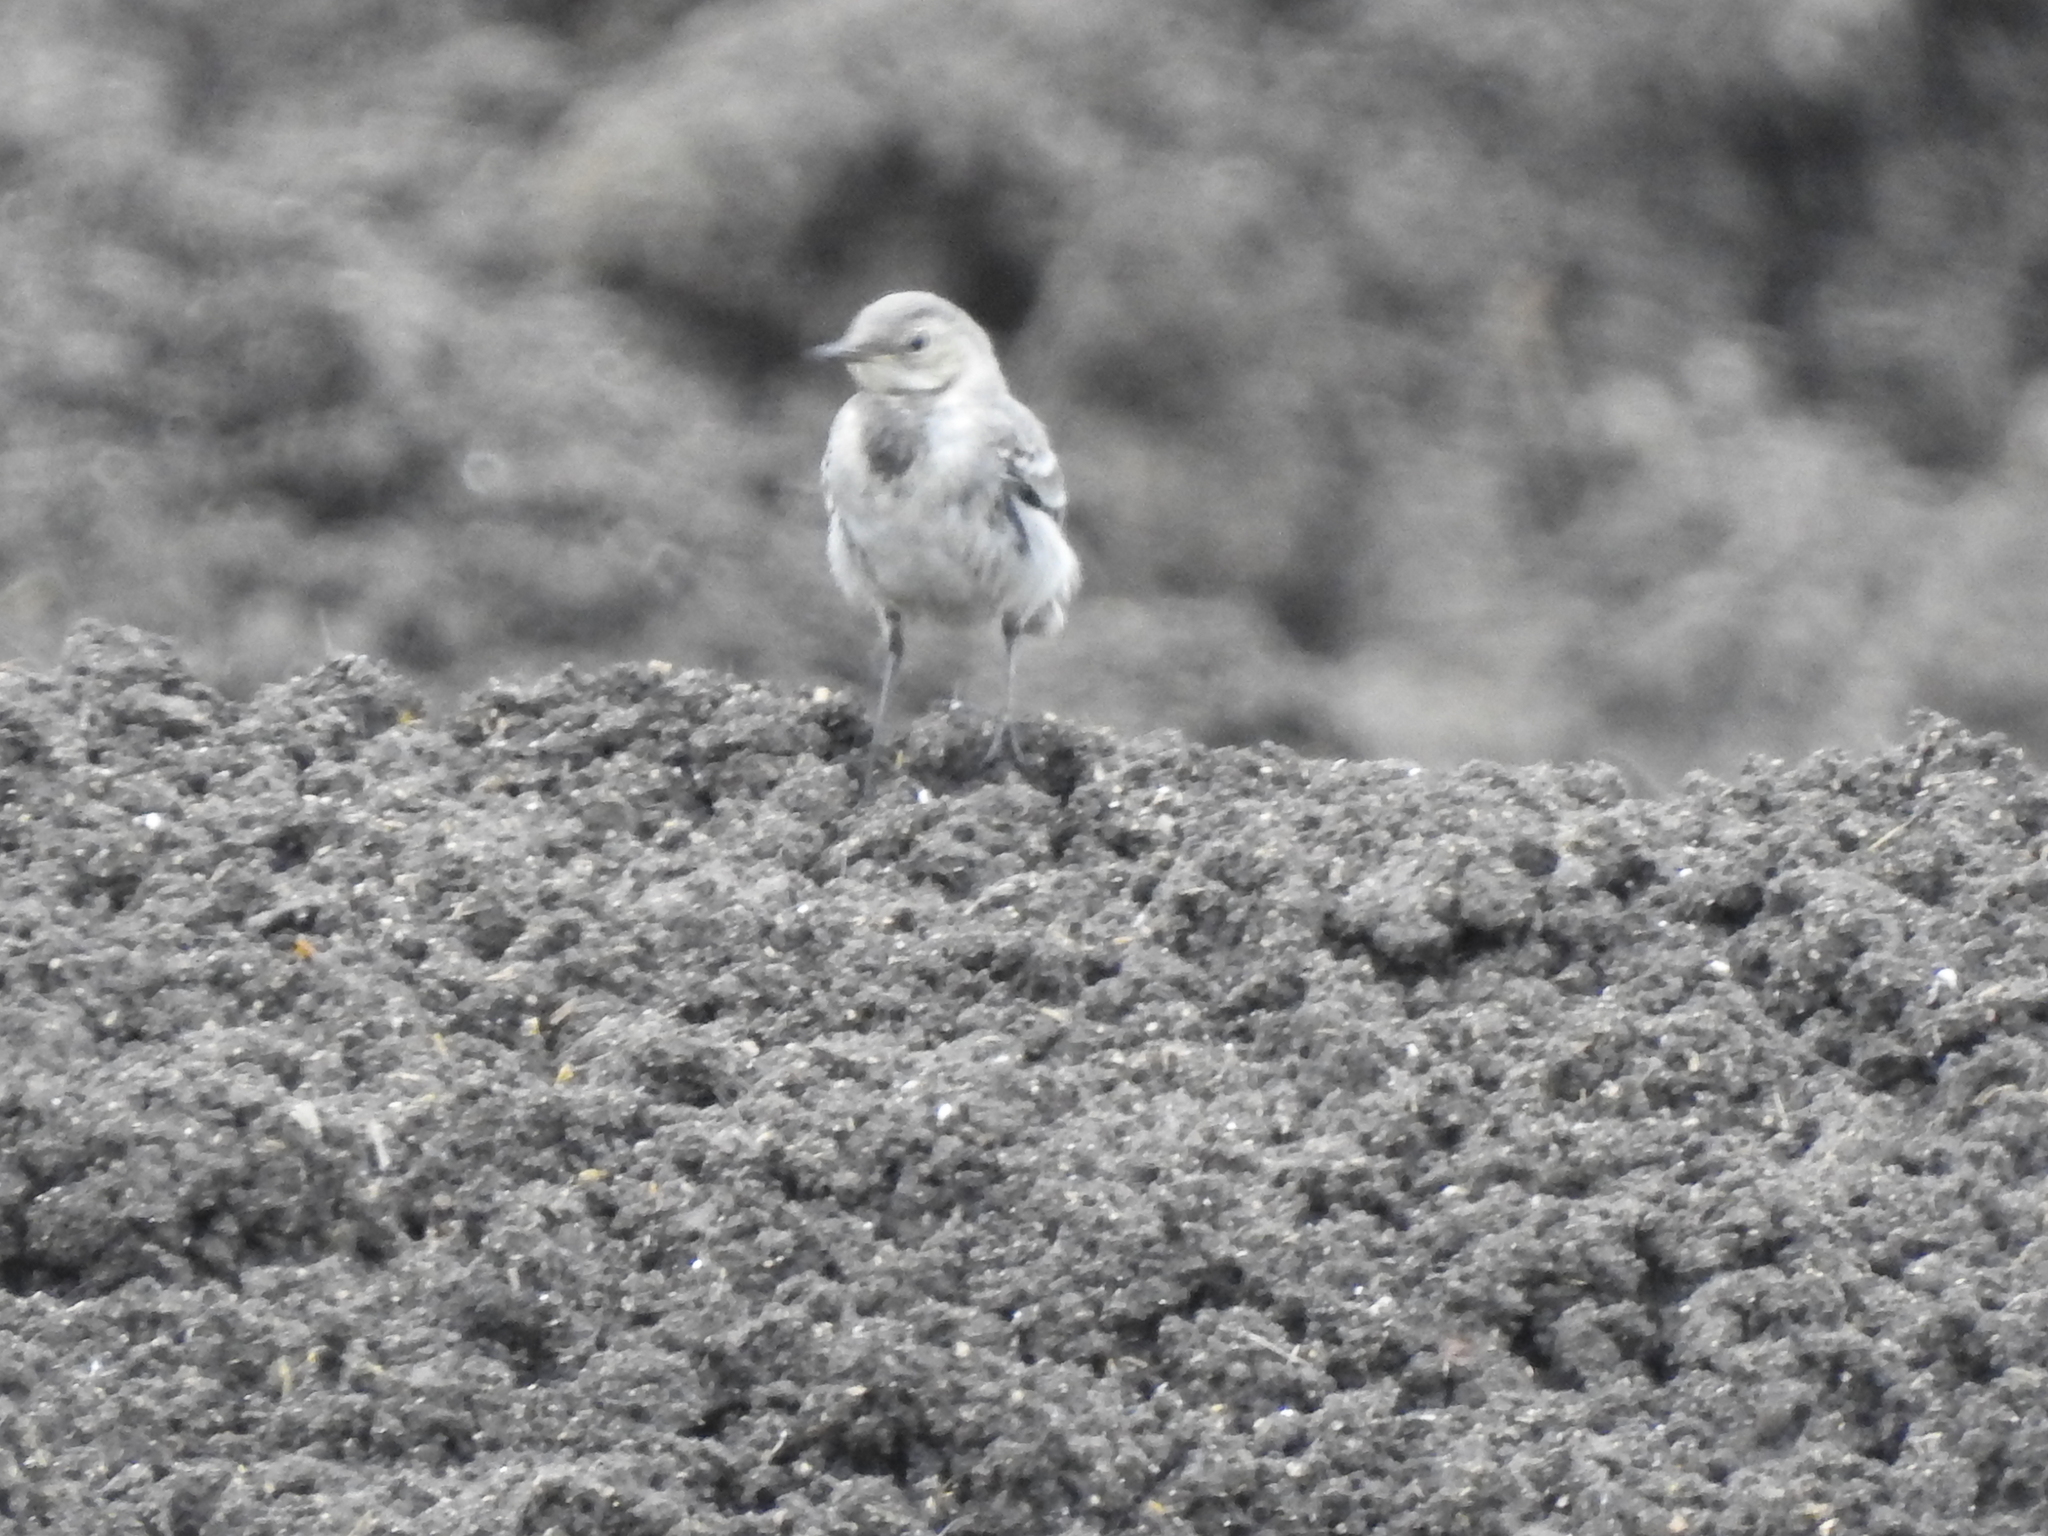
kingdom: Animalia
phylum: Chordata
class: Aves
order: Passeriformes
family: Motacillidae
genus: Motacilla
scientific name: Motacilla alba
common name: White wagtail
